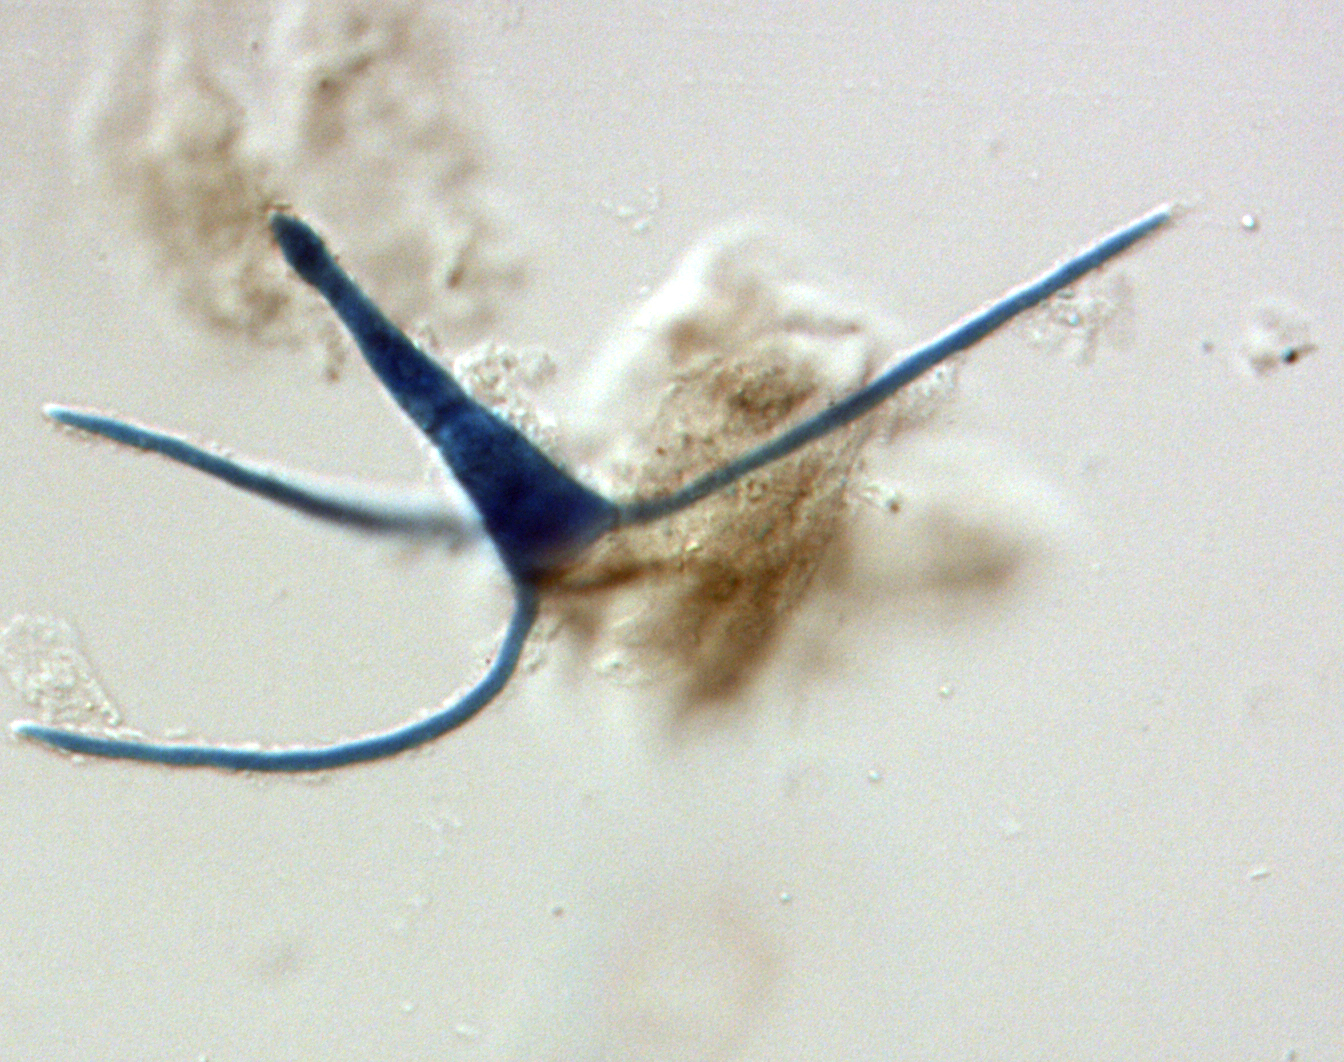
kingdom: Fungi
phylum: Ascomycota
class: Dothideomycetes
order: Pleosporales
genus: Clavariopsis
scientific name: Clavariopsis aquatica
